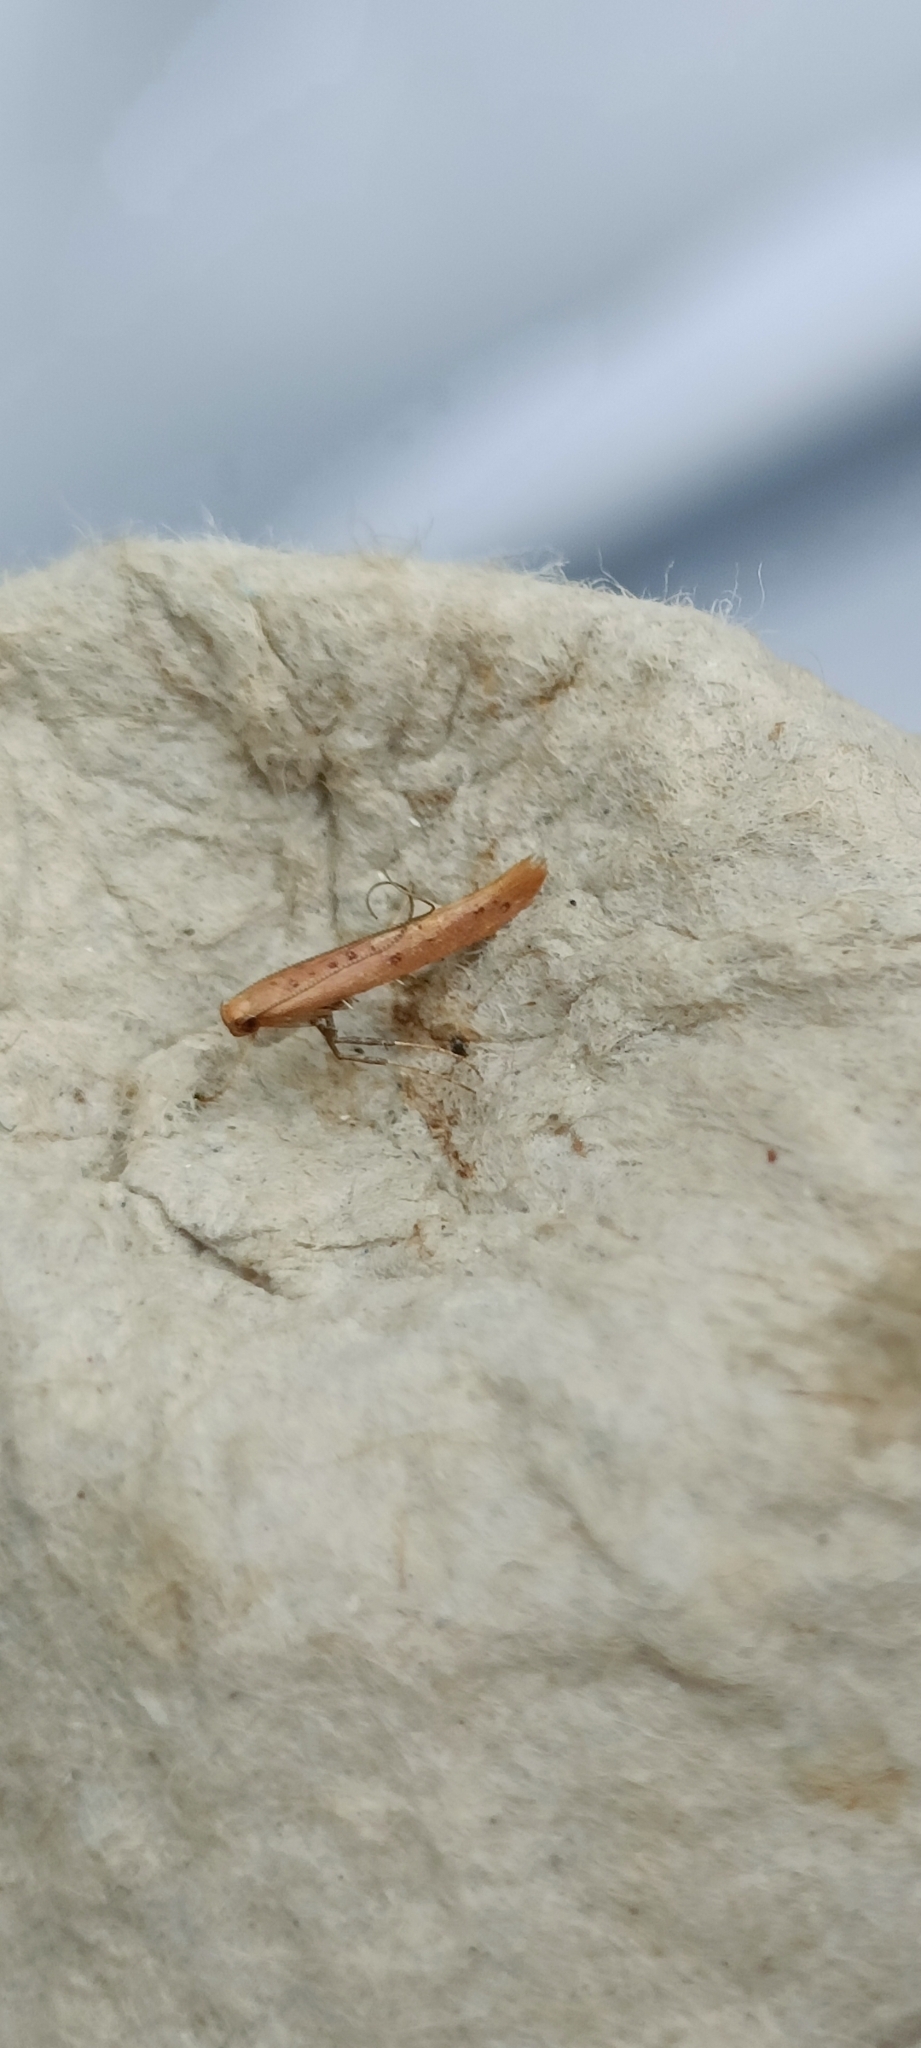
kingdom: Animalia
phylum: Arthropoda
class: Insecta
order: Lepidoptera
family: Gracillariidae
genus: Caloptilia
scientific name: Caloptilia rufipennella
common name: Small red slender
